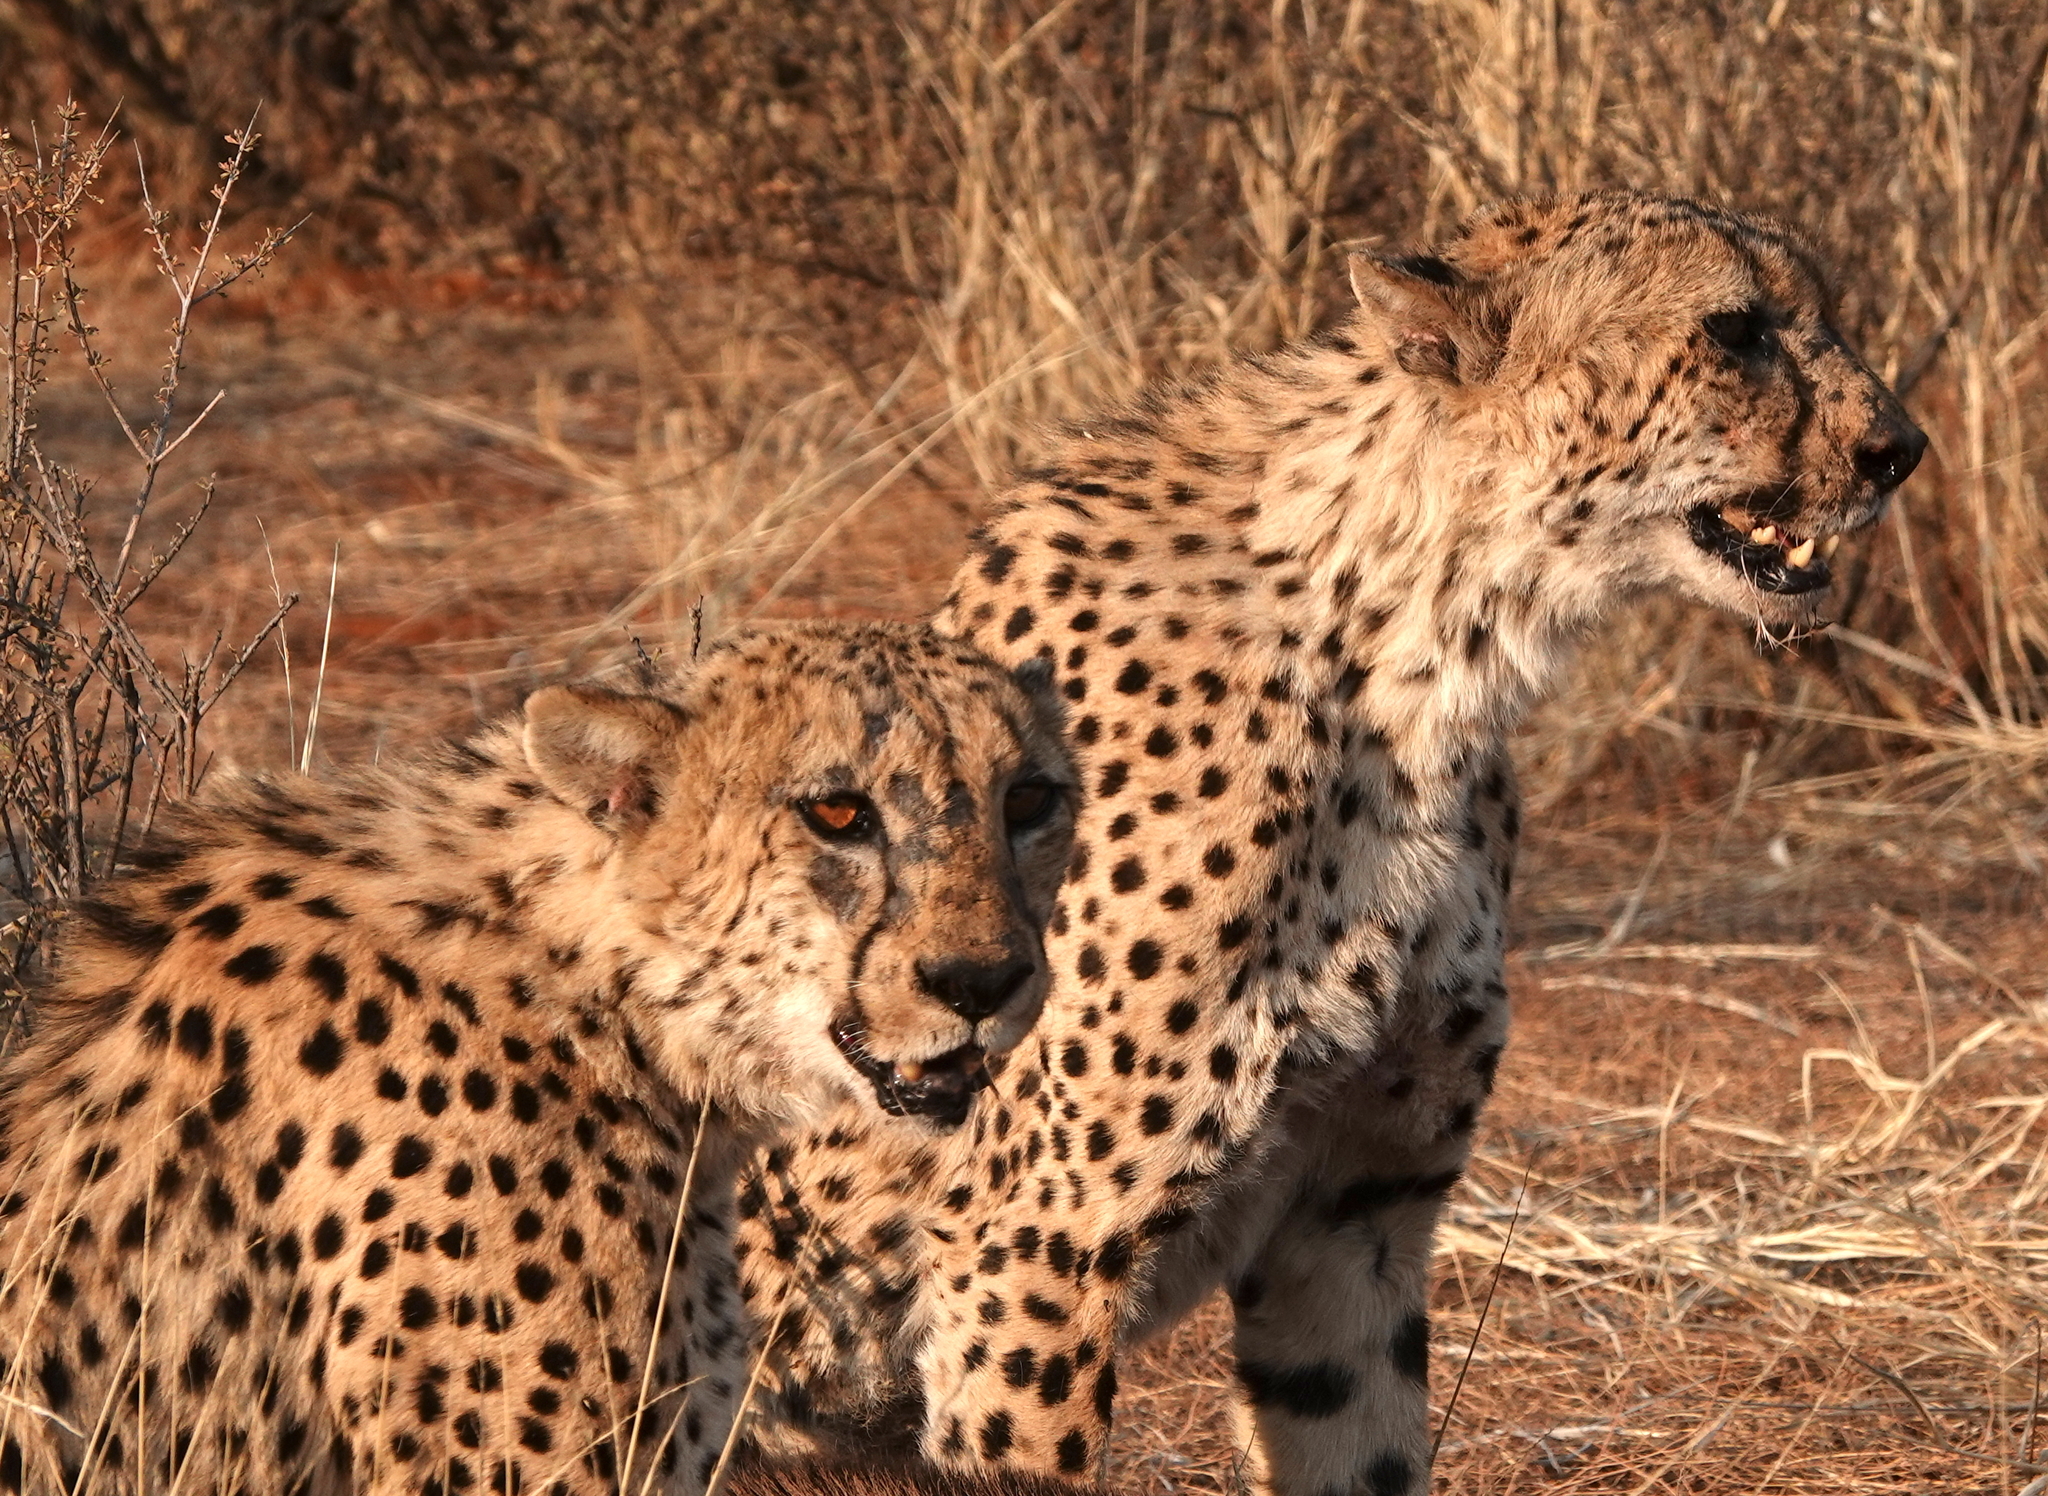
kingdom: Animalia
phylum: Chordata
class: Mammalia
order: Carnivora
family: Felidae
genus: Acinonyx
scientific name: Acinonyx jubatus
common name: Cheetah
